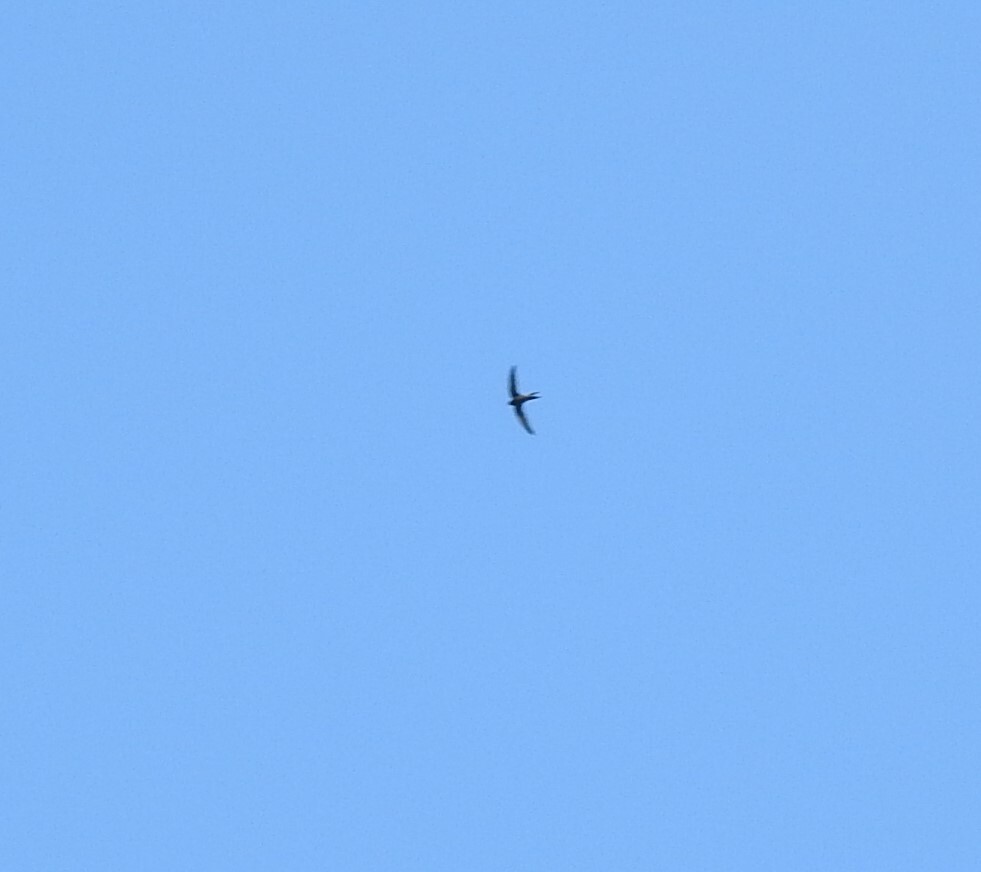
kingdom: Animalia
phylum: Chordata
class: Aves
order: Apodiformes
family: Apodidae
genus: Apus
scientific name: Apus apus
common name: Common swift
